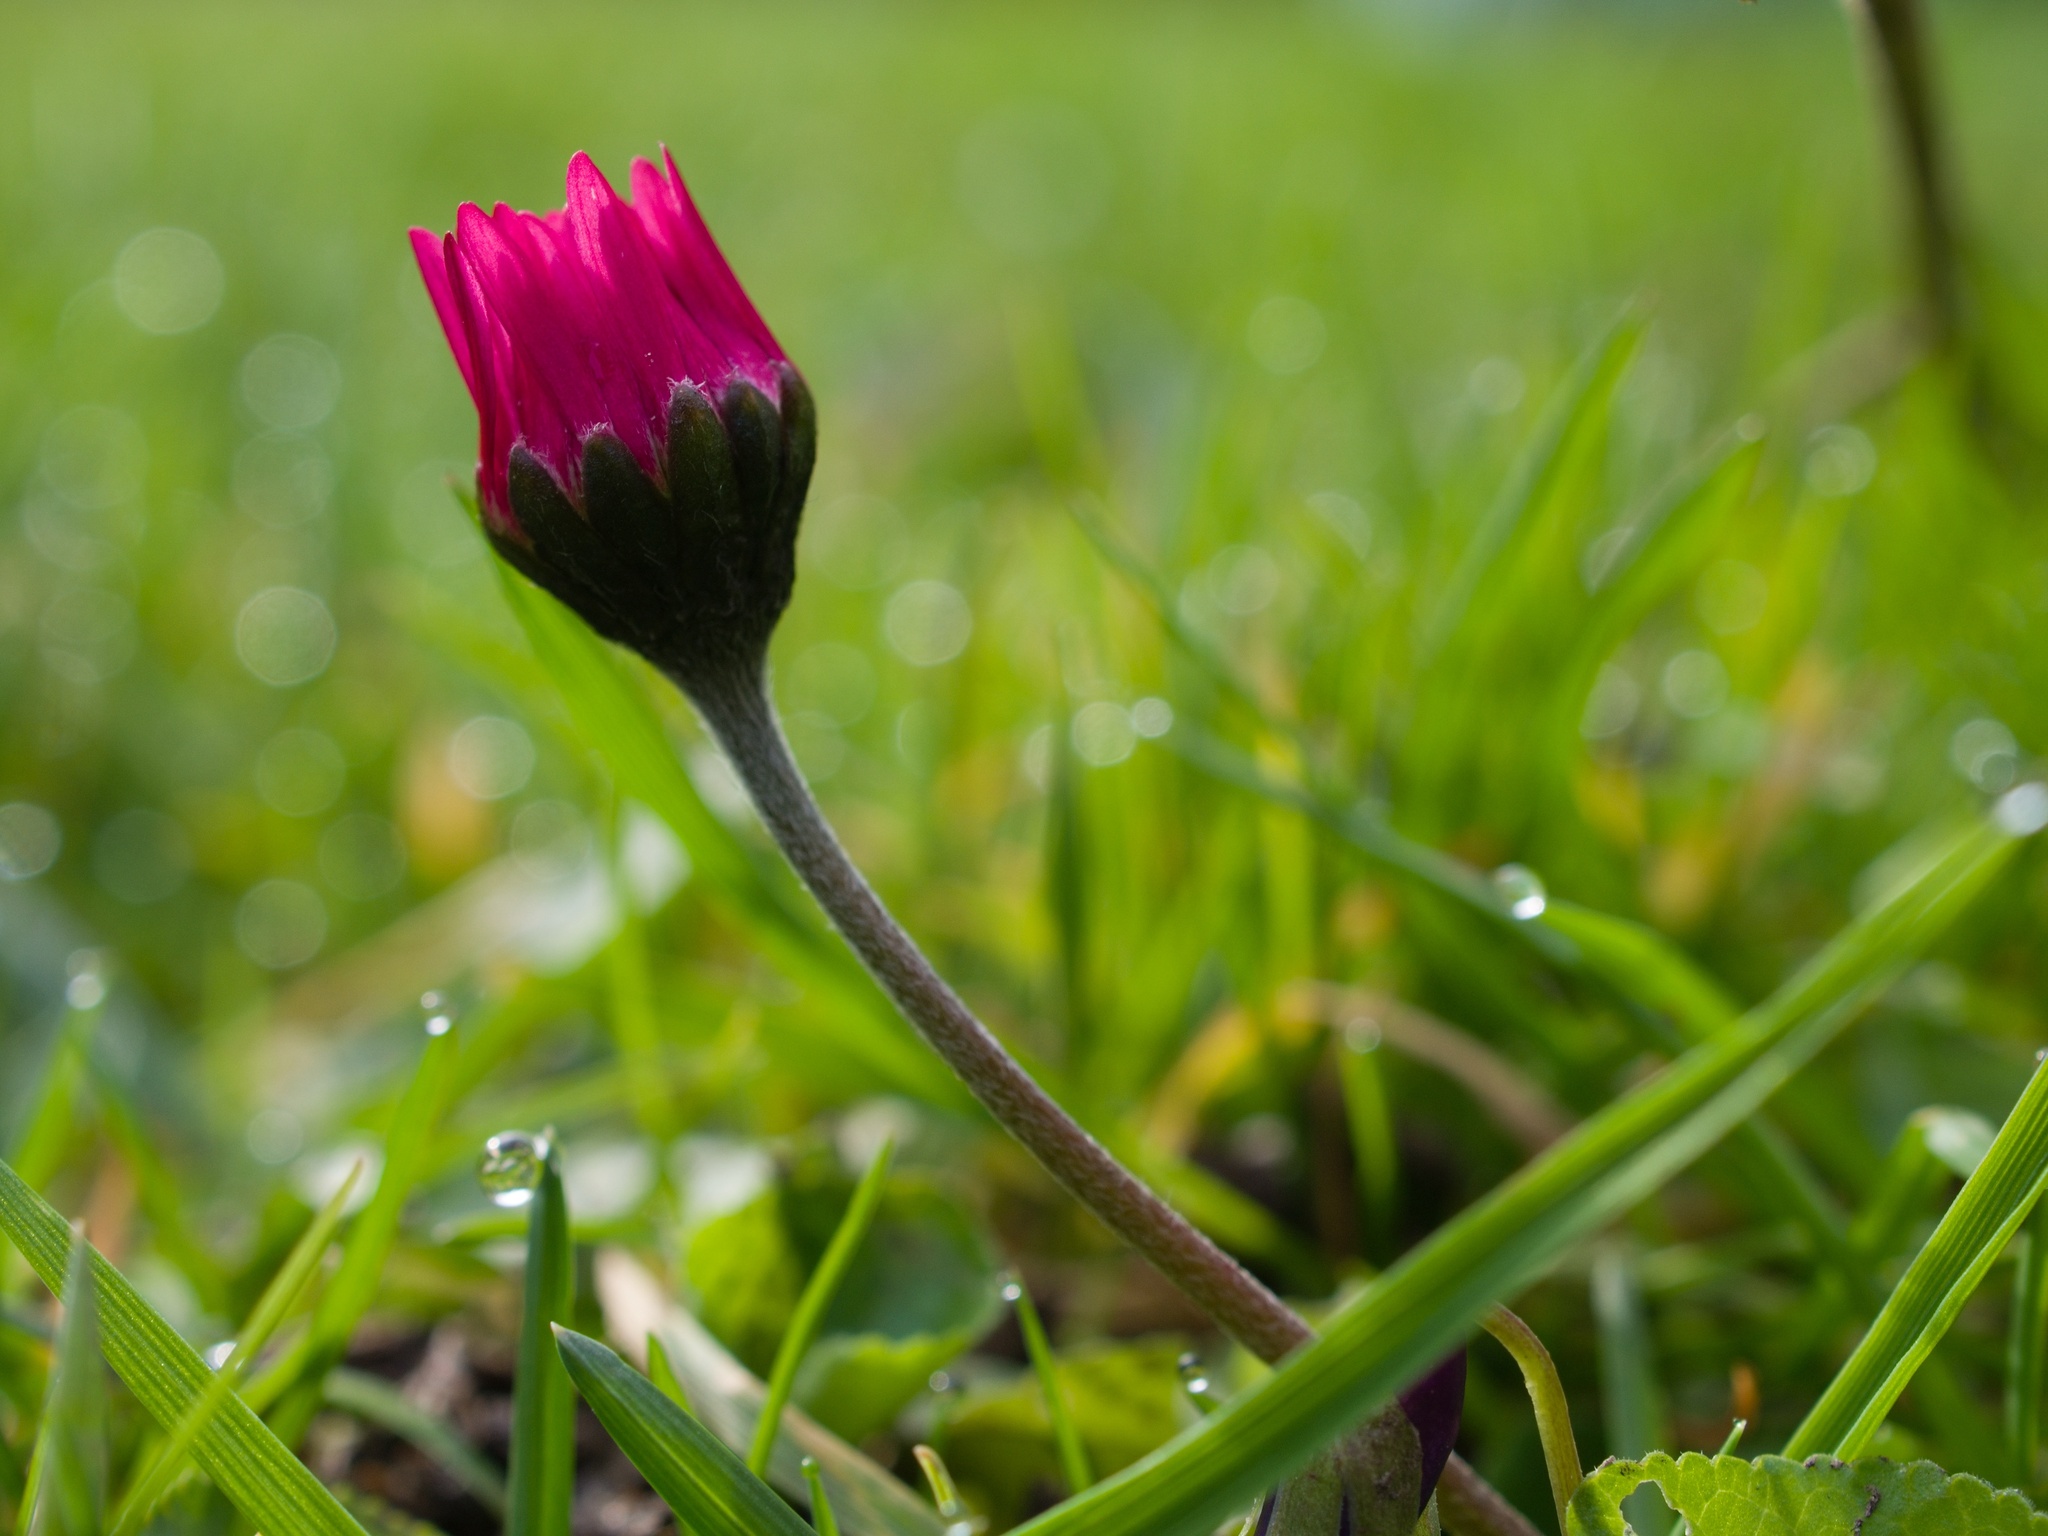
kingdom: Plantae
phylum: Tracheophyta
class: Magnoliopsida
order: Asterales
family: Asteraceae
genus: Bellis
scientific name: Bellis perennis
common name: Lawndaisy
